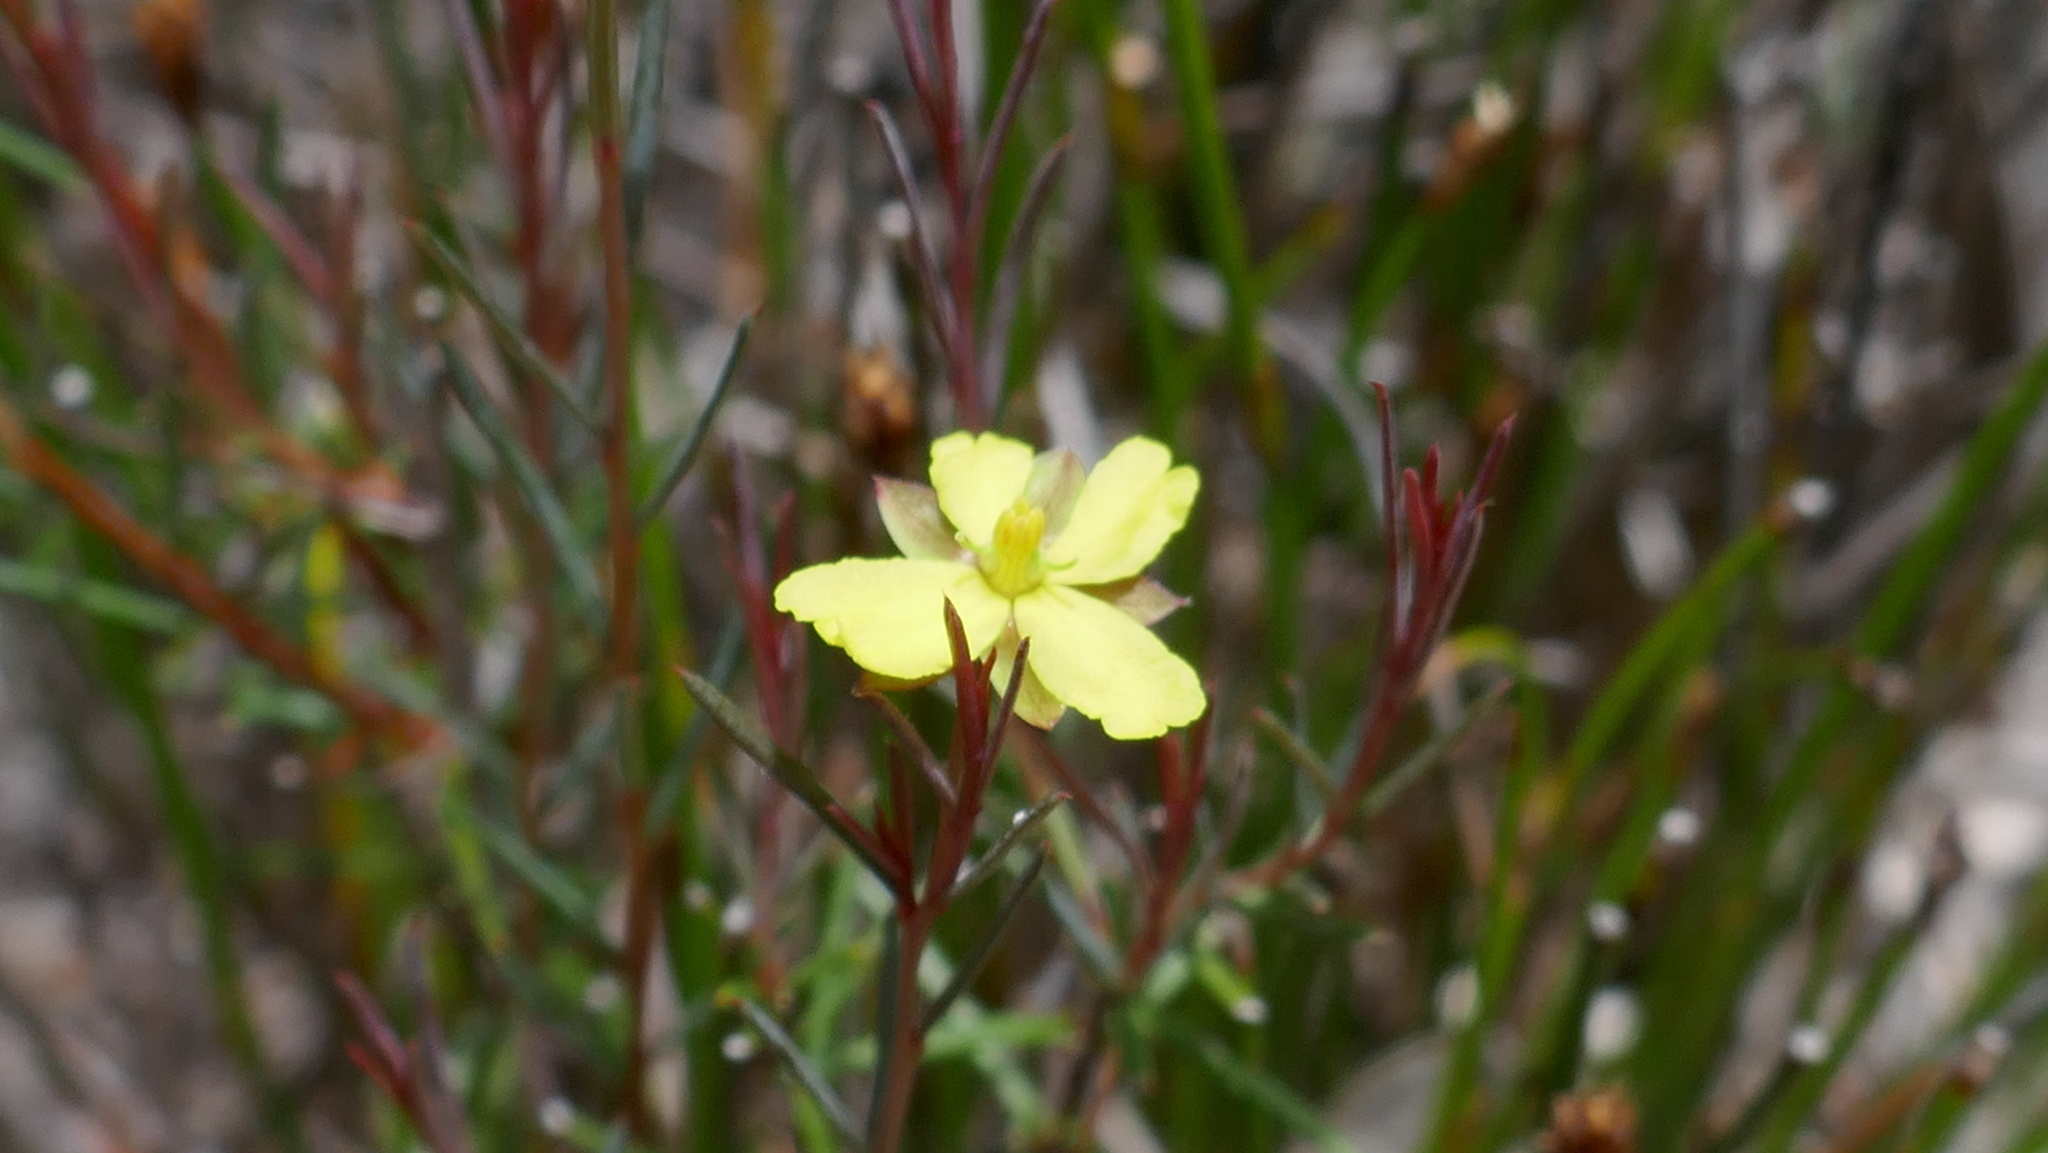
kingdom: Plantae
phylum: Tracheophyta
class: Magnoliopsida
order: Dilleniales
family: Dilleniaceae
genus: Hibbertia
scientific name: Hibbertia miniata
